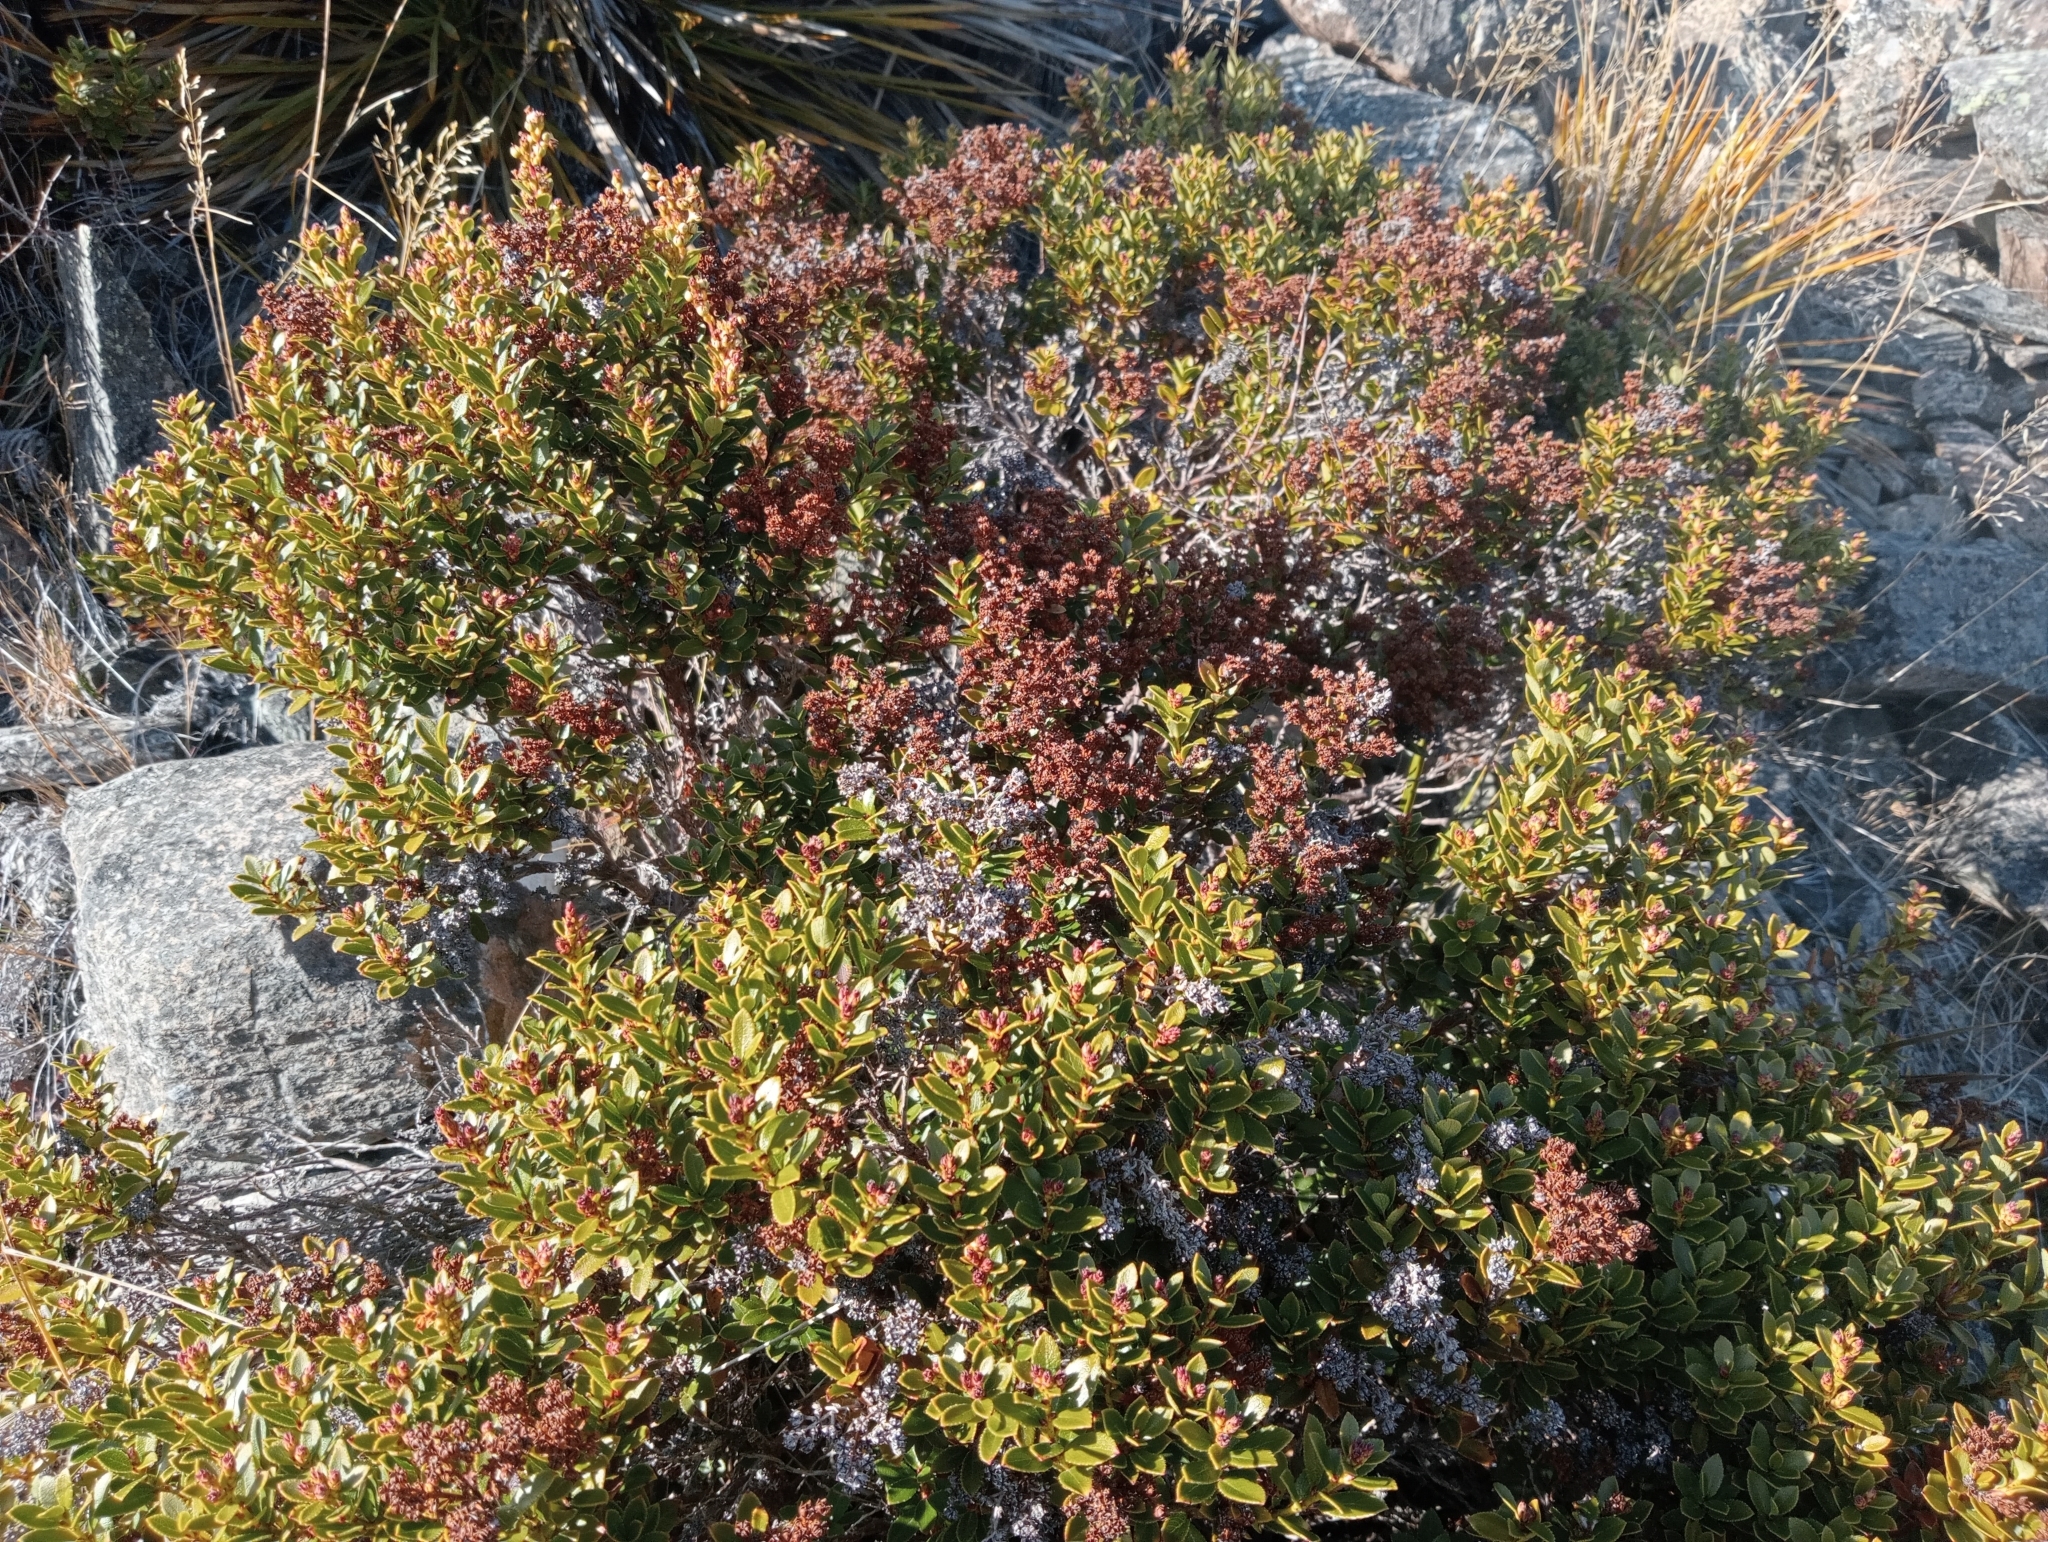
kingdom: Plantae
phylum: Tracheophyta
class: Magnoliopsida
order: Ericales
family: Ericaceae
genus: Gaultheria
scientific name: Gaultheria crassa
